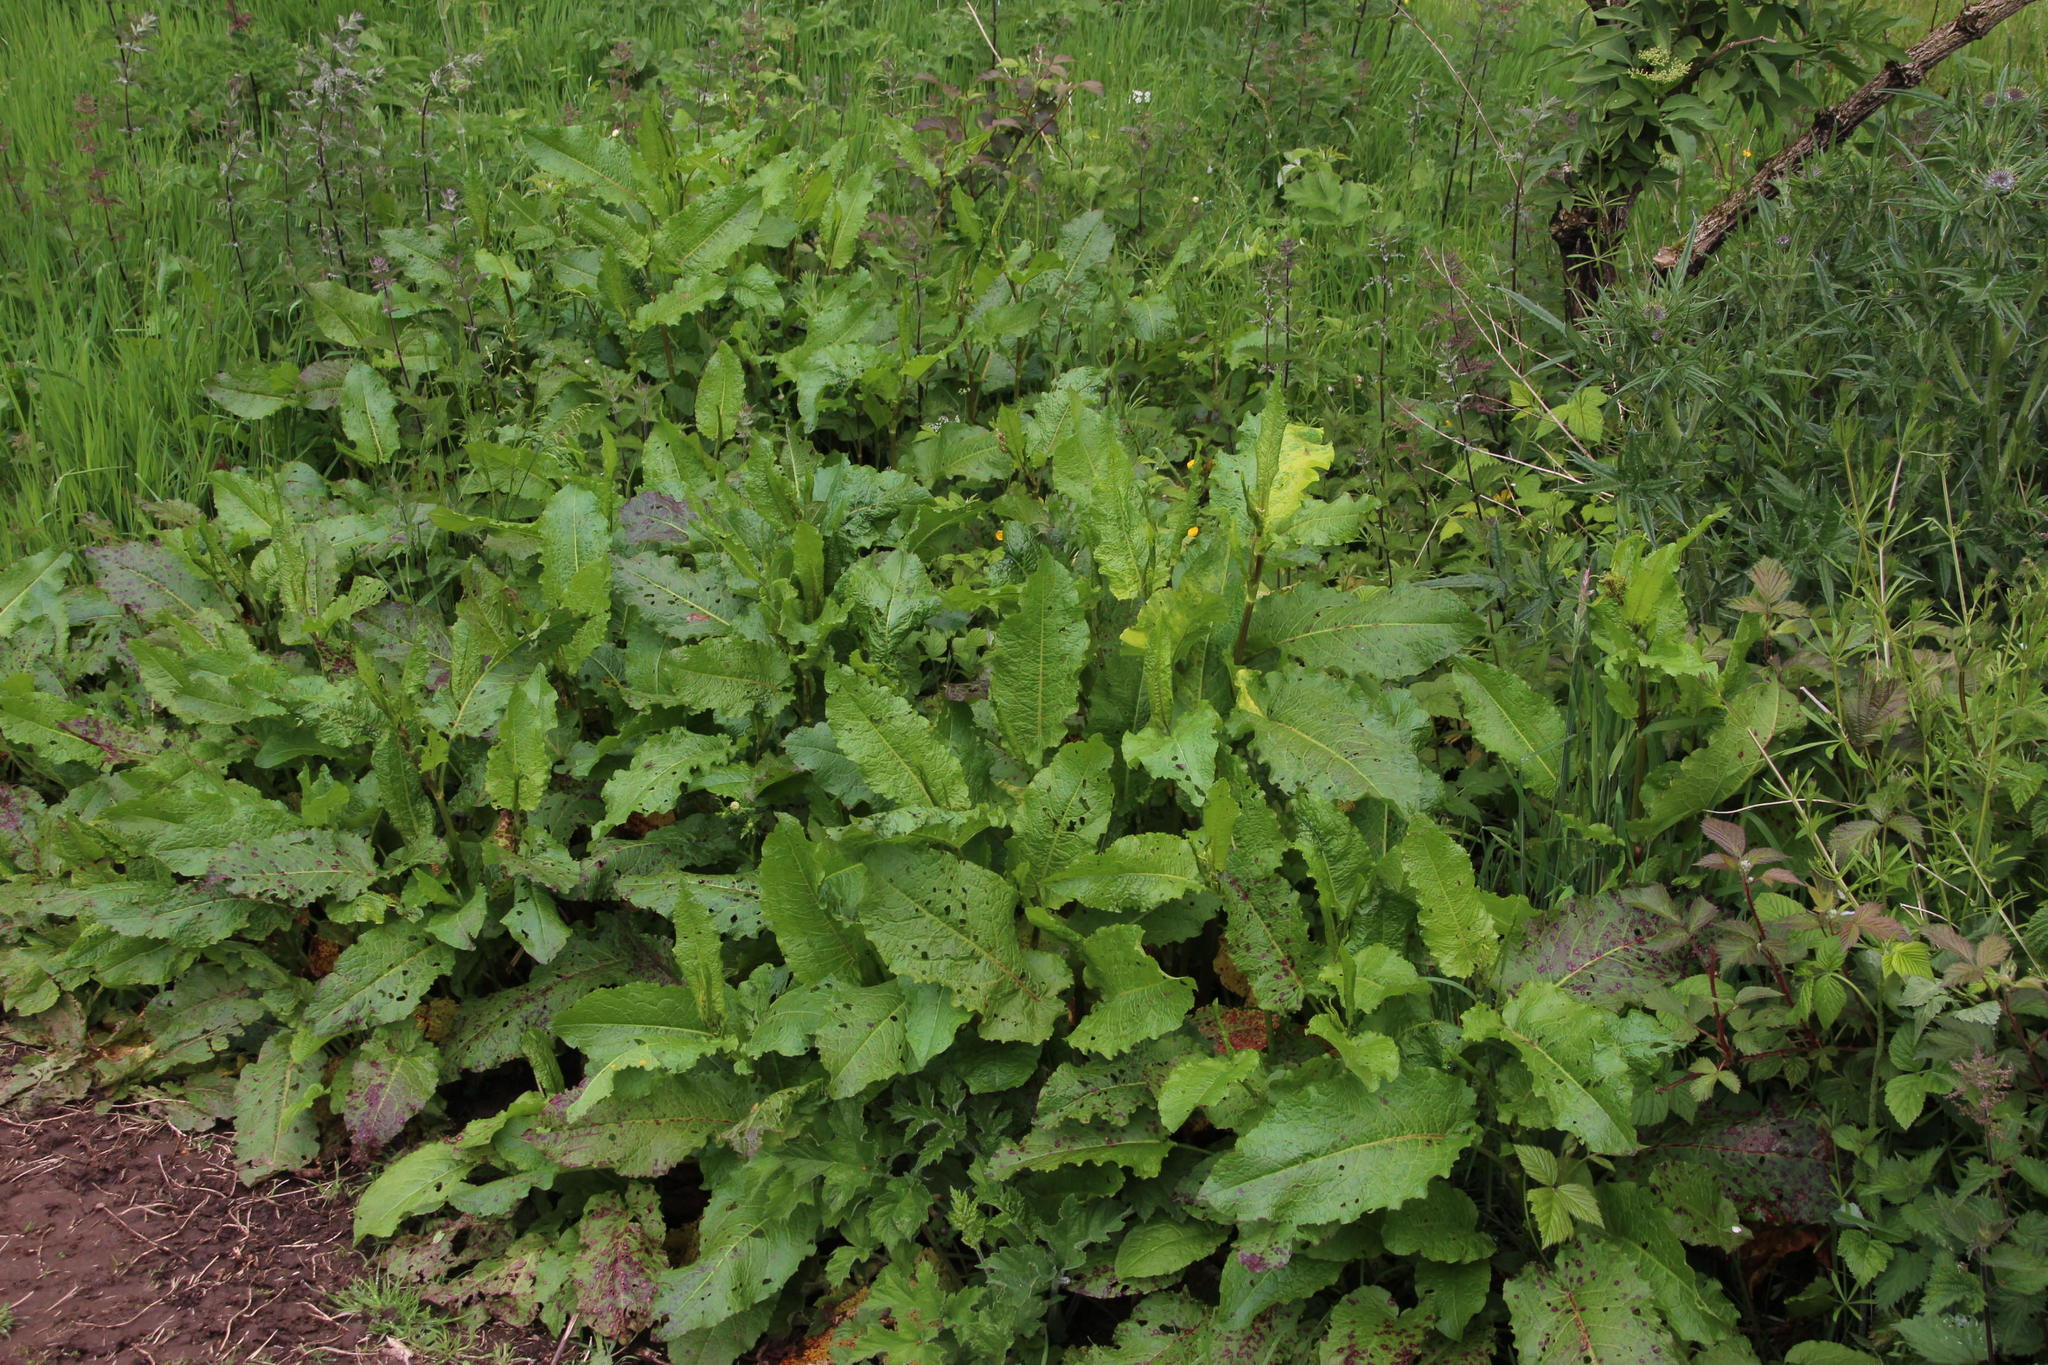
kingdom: Plantae
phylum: Tracheophyta
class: Magnoliopsida
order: Caryophyllales
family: Polygonaceae
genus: Rumex
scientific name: Rumex obtusifolius
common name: Bitter dock
